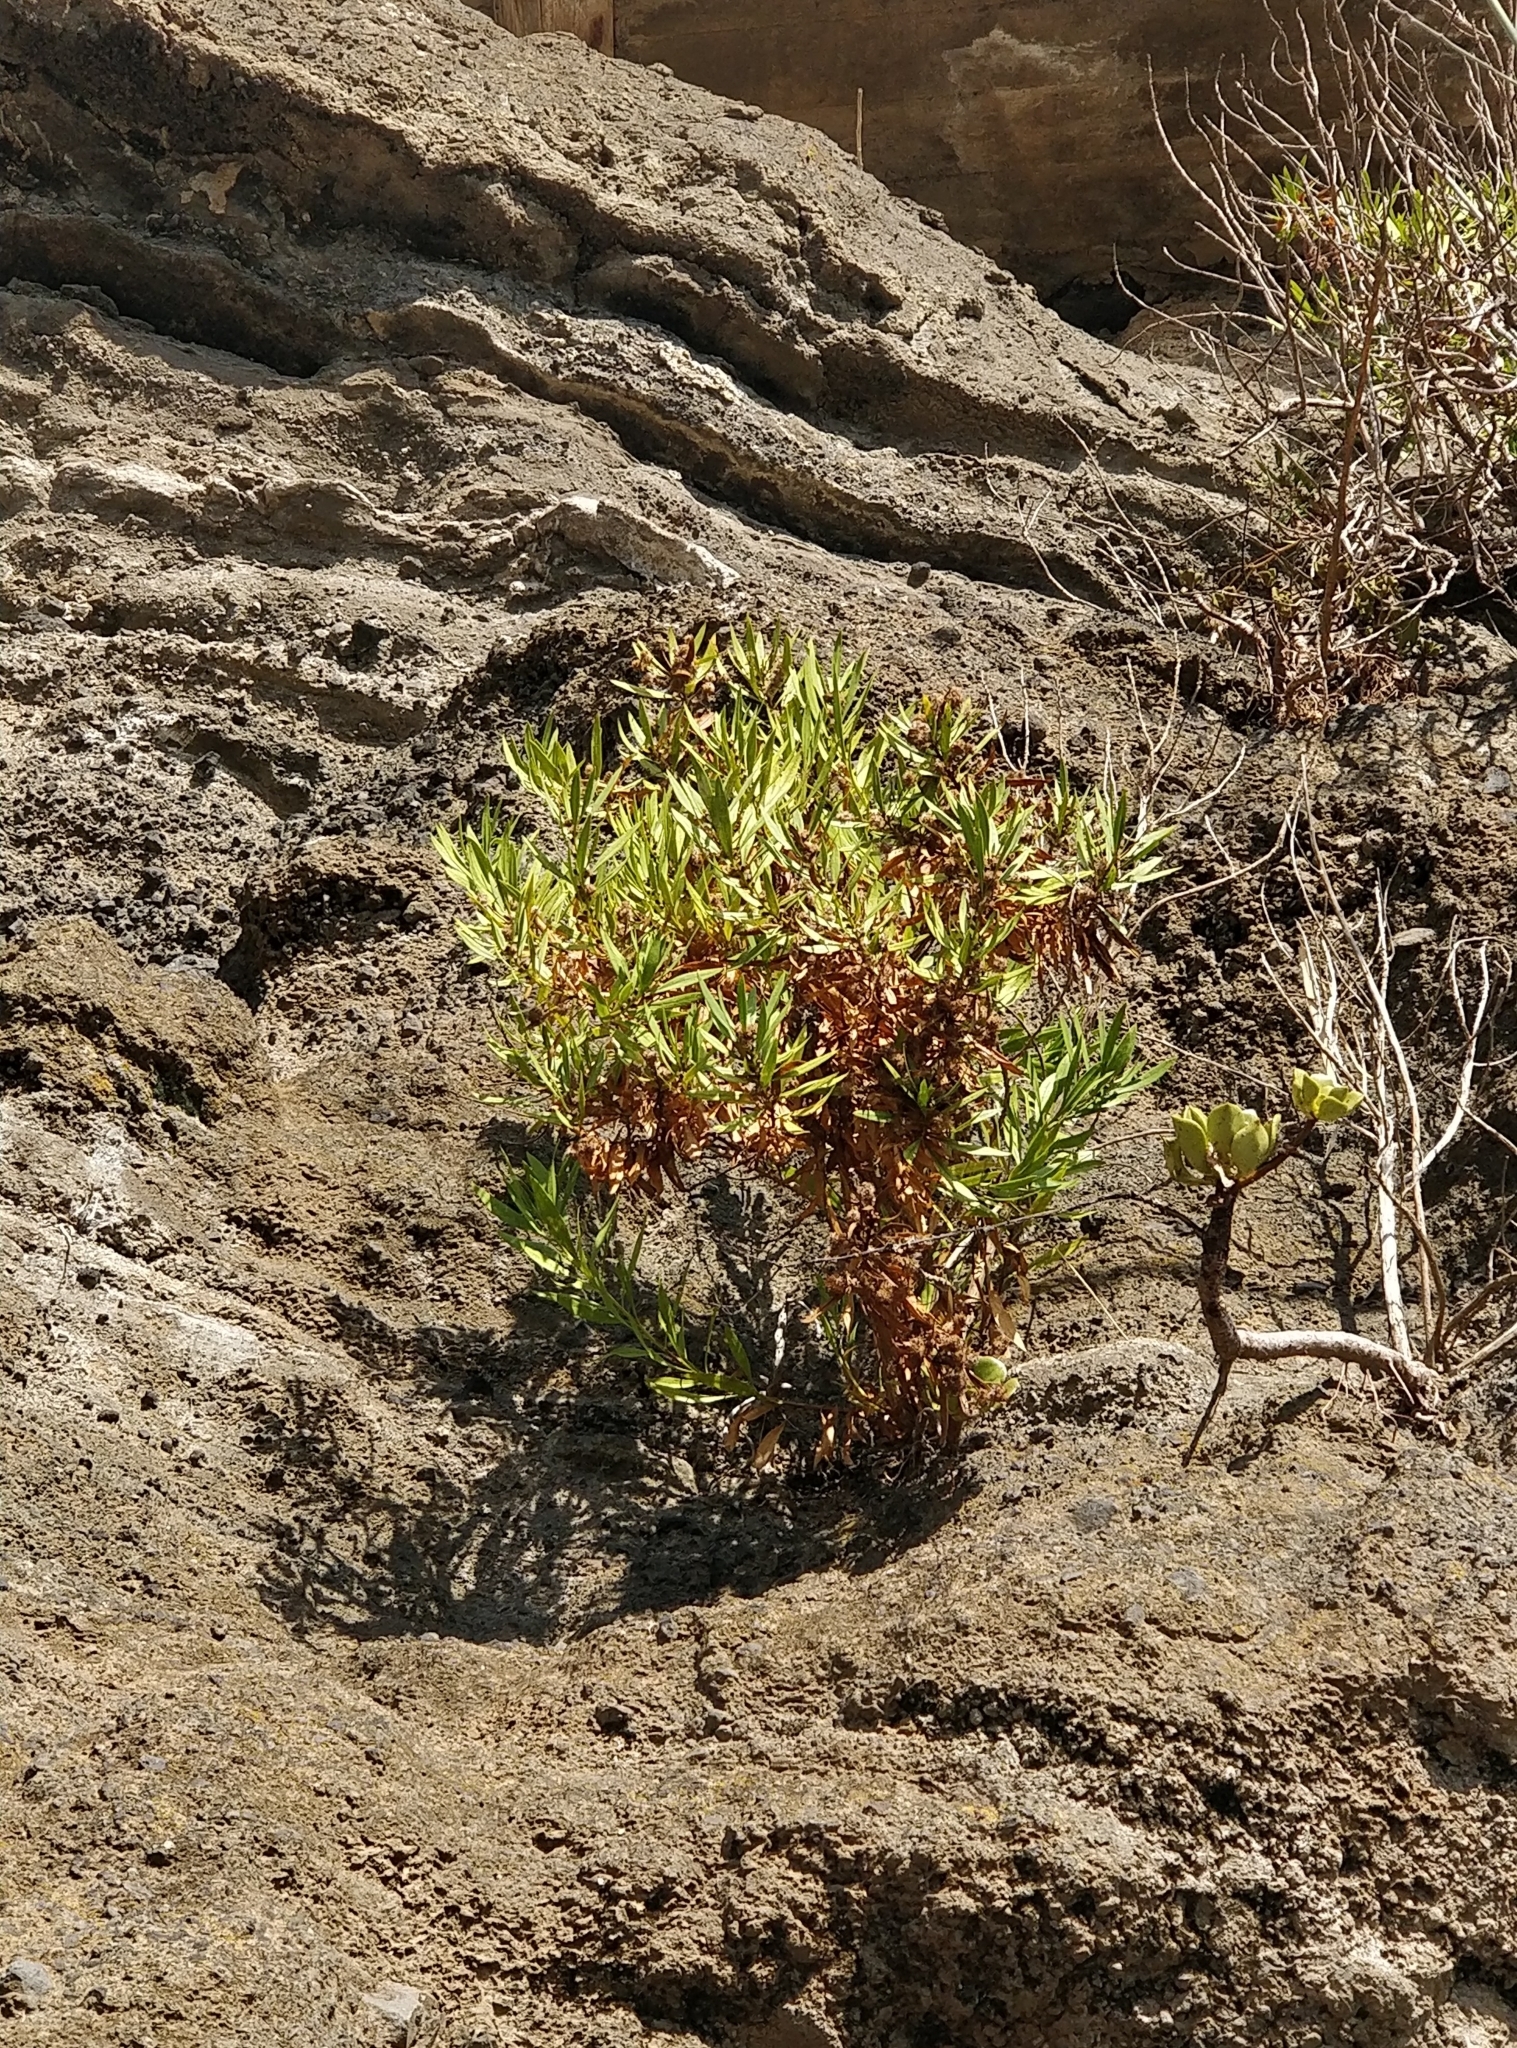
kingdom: Plantae
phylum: Tracheophyta
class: Magnoliopsida
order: Lamiales
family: Plantaginaceae
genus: Globularia
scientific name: Globularia salicina
